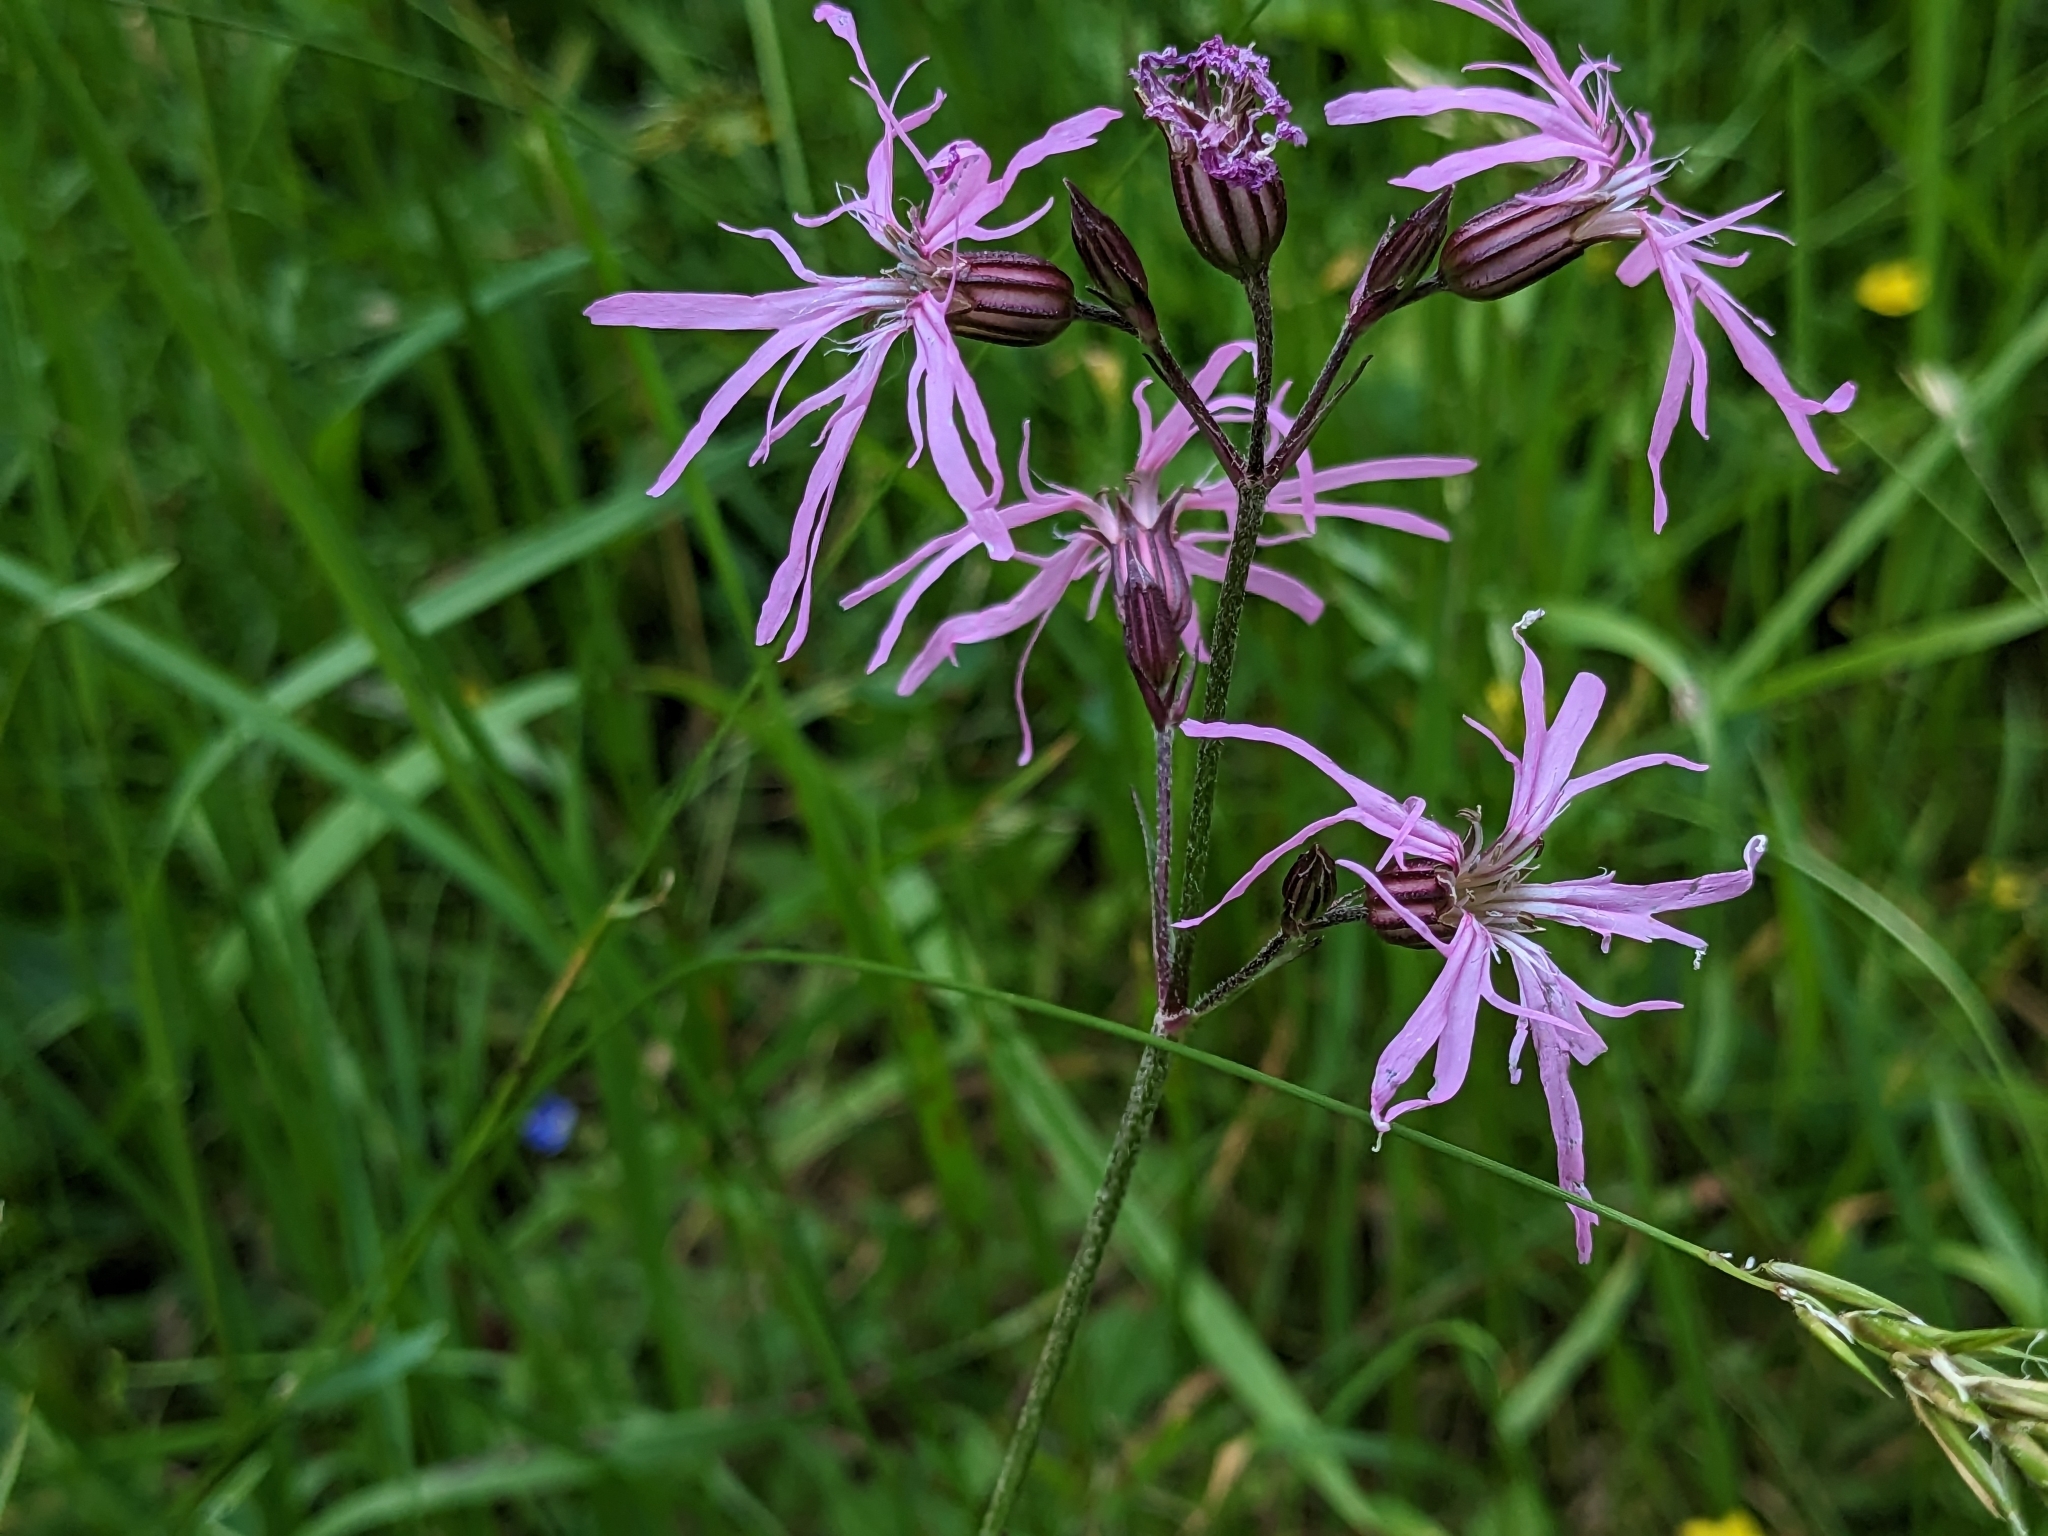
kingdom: Plantae
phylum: Tracheophyta
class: Magnoliopsida
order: Caryophyllales
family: Caryophyllaceae
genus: Silene
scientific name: Silene flos-cuculi
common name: Ragged-robin
